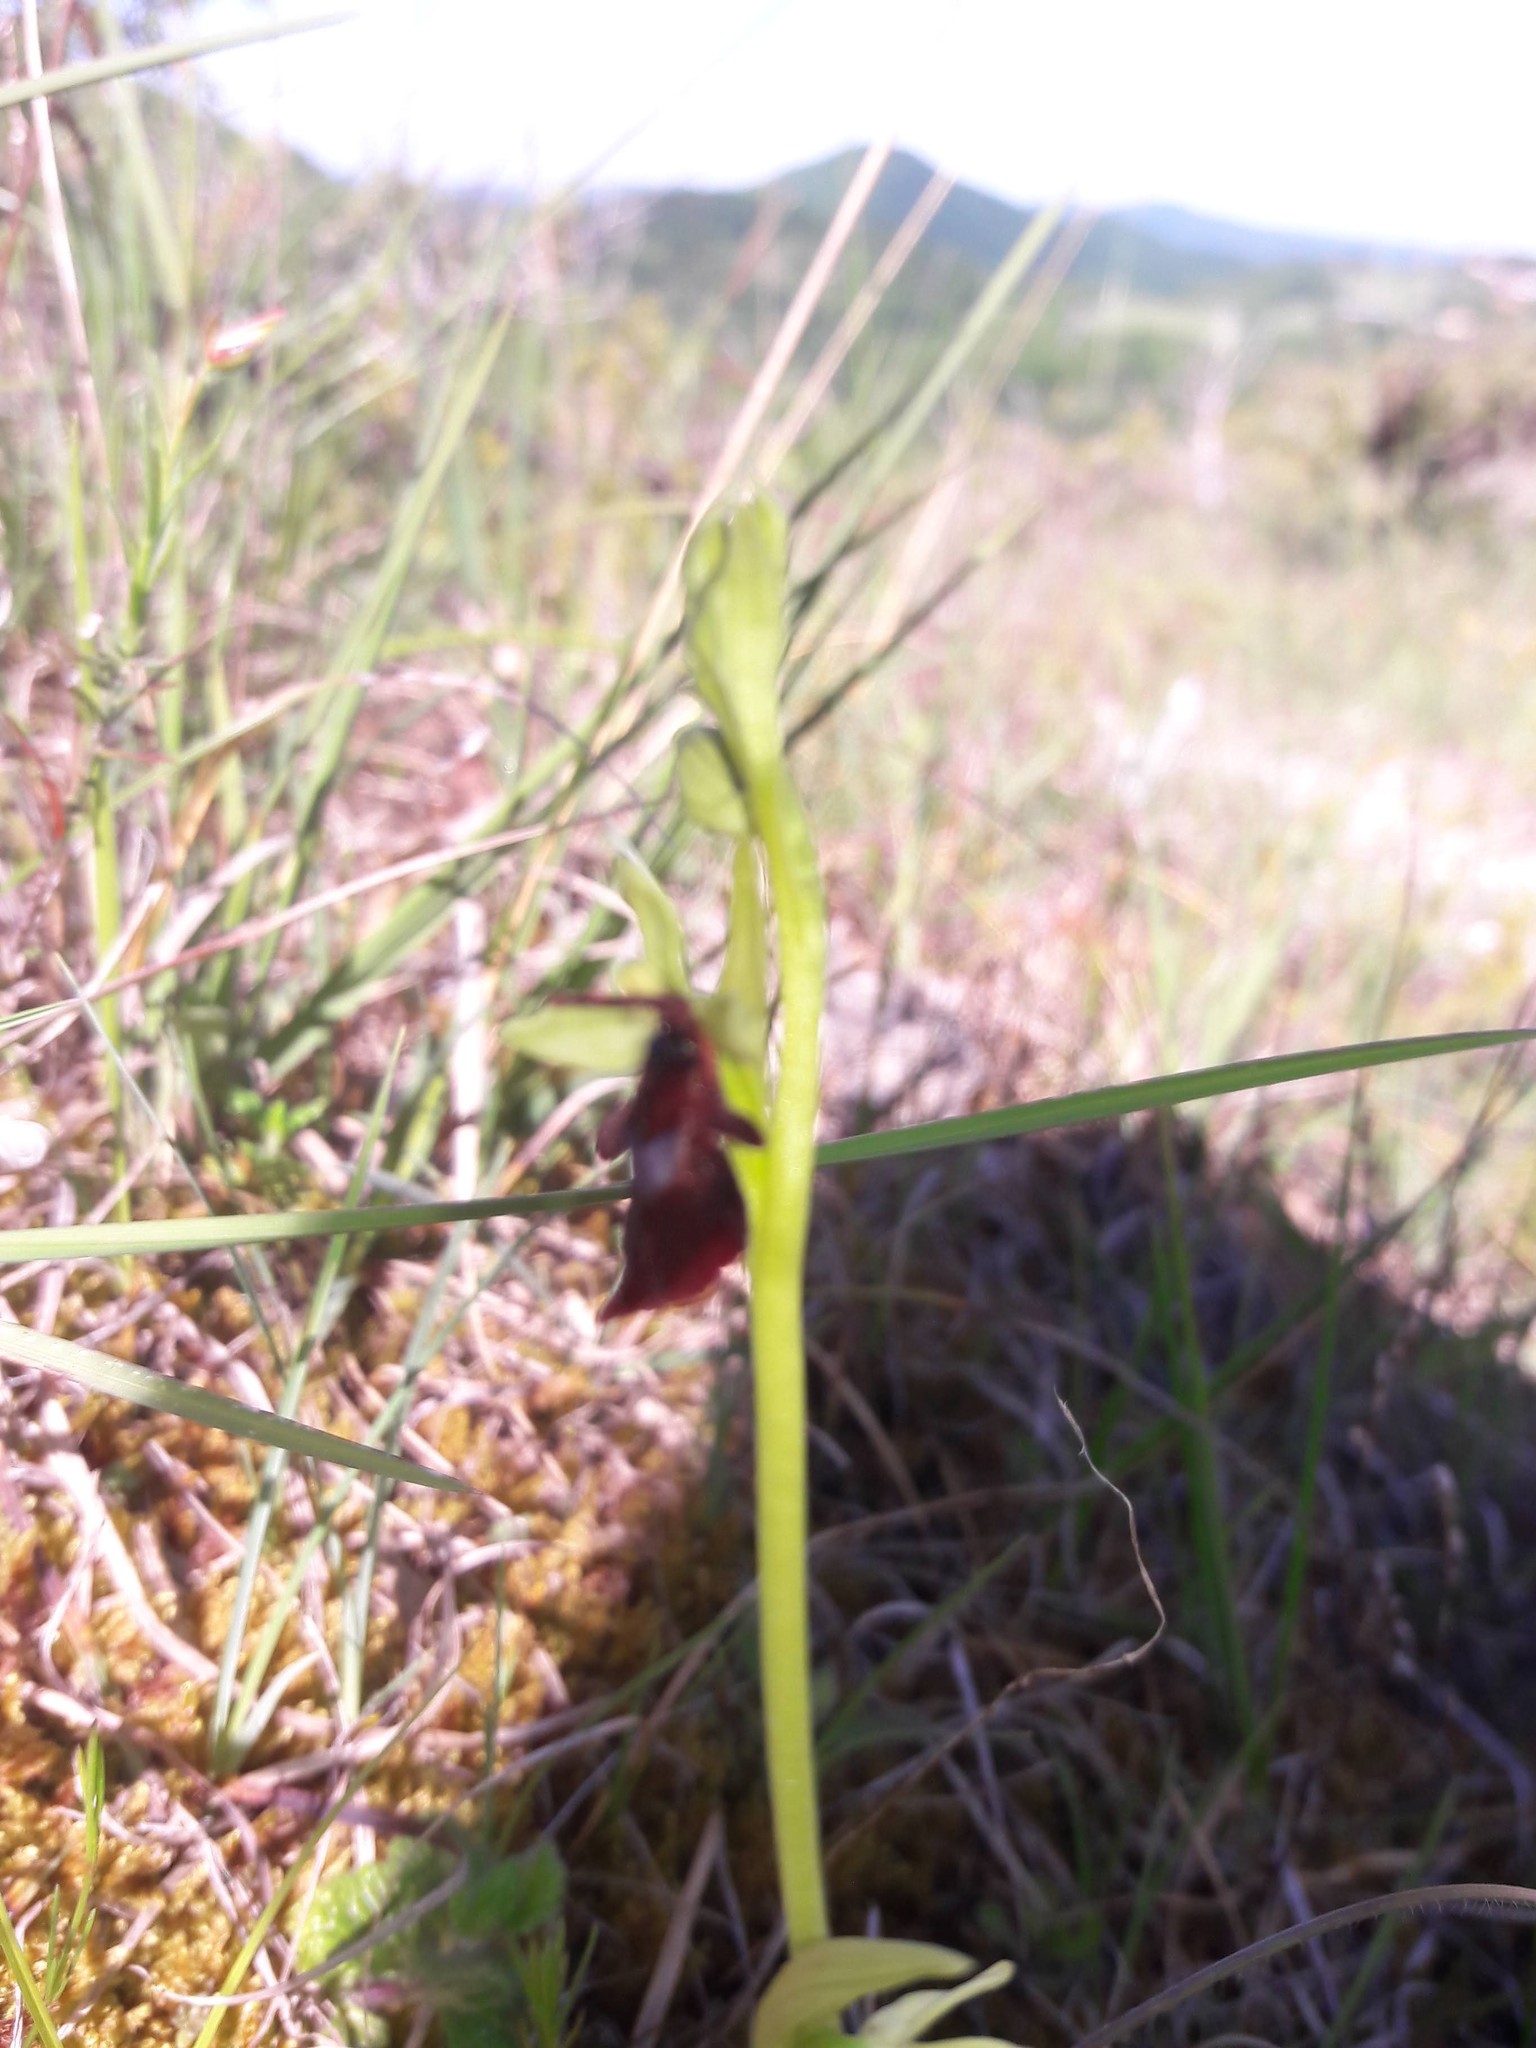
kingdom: Plantae
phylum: Tracheophyta
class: Liliopsida
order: Asparagales
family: Orchidaceae
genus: Ophrys
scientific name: Ophrys insectifera
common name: Fly orchid
